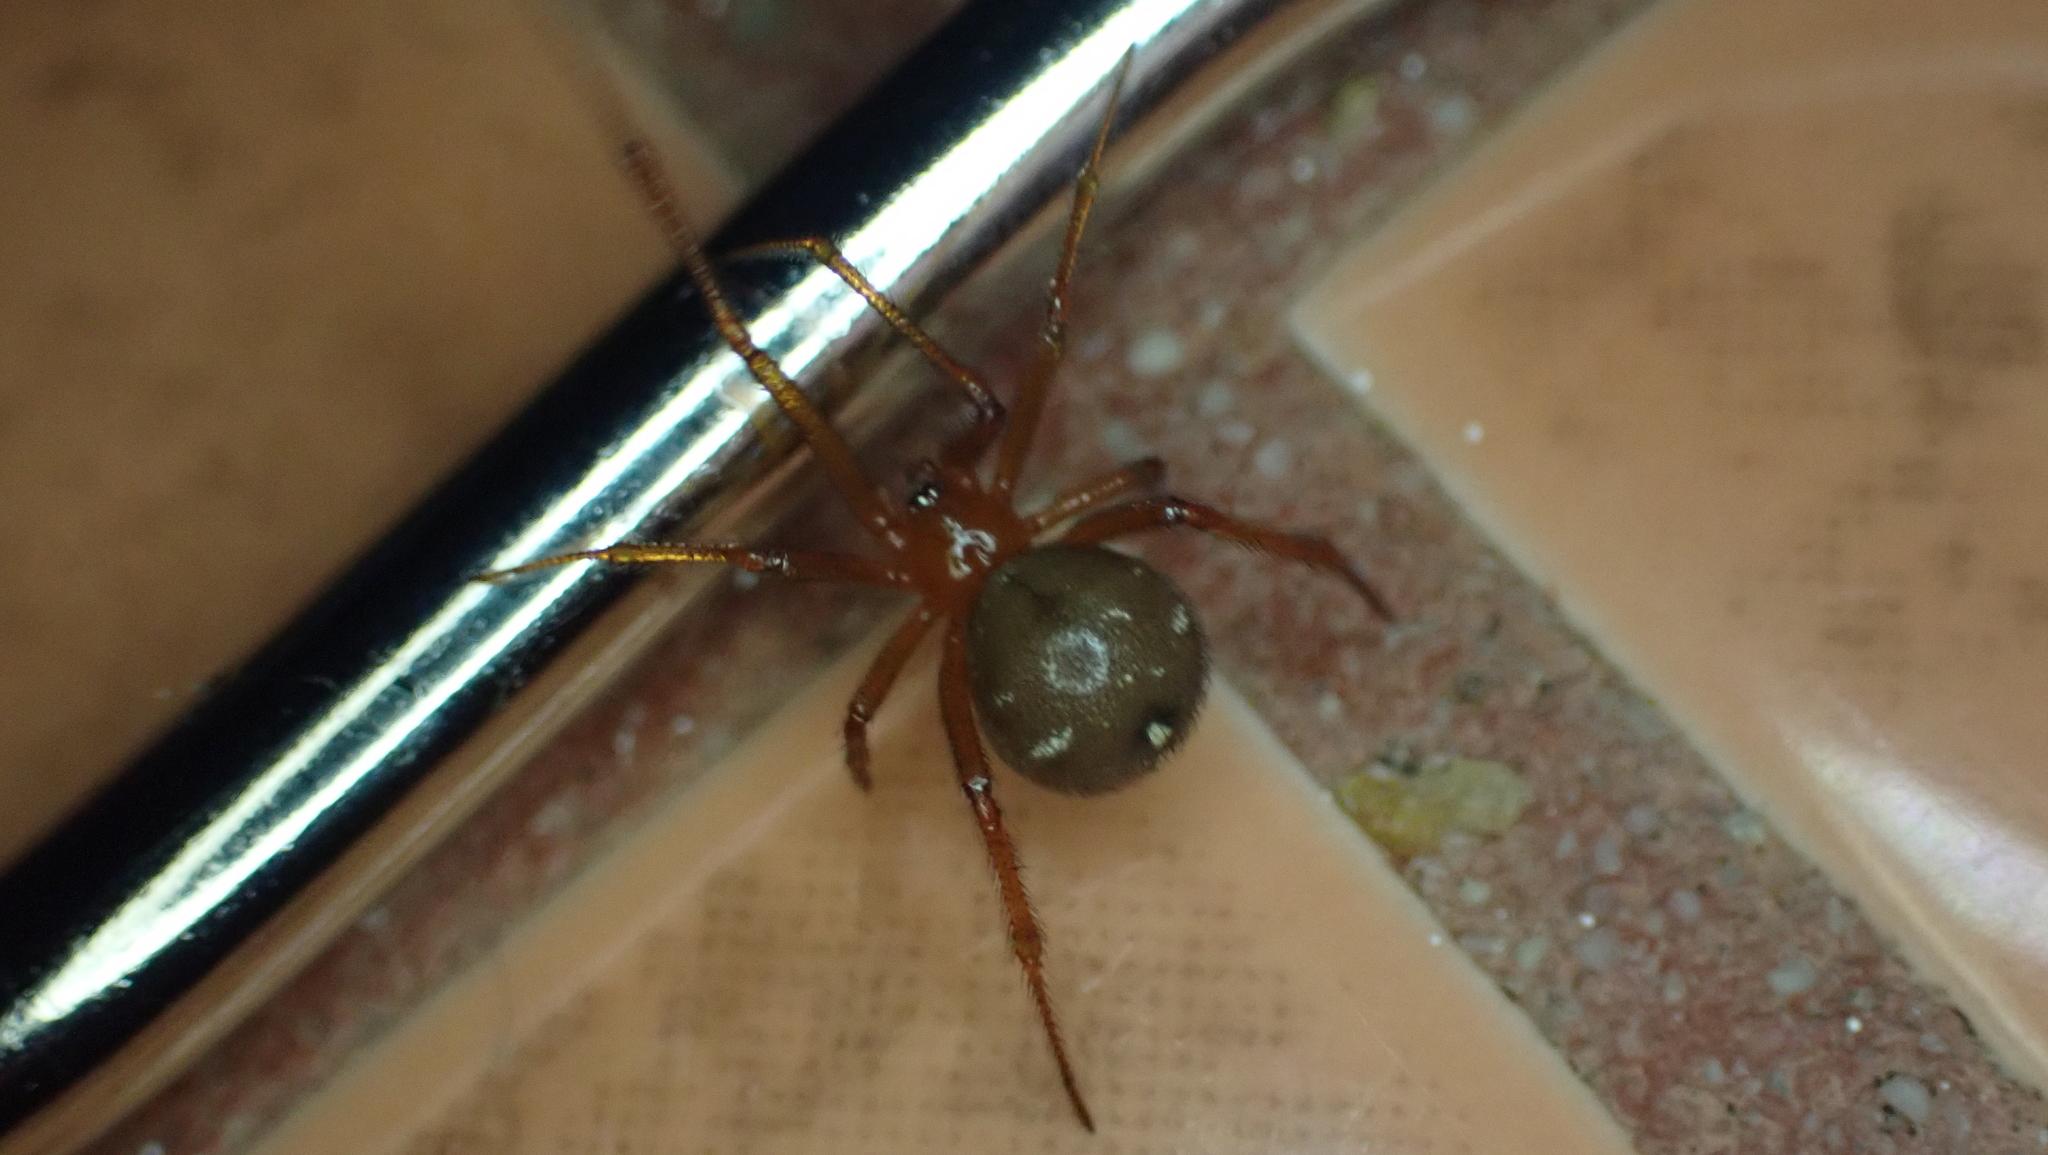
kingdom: Animalia
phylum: Arthropoda
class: Arachnida
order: Araneae
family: Theridiidae
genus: Nesticodes
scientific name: Nesticodes rufipes
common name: Cobweb spiders
